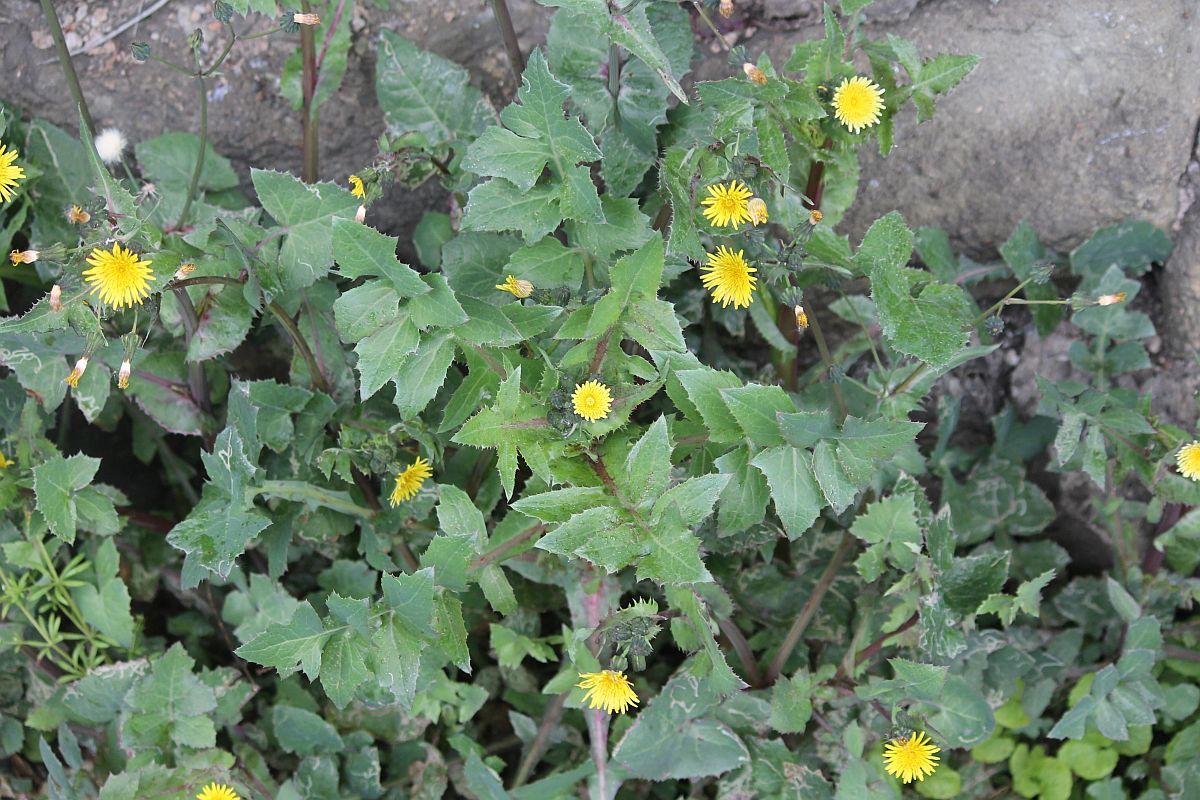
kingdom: Plantae
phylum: Tracheophyta
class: Magnoliopsida
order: Asterales
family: Asteraceae
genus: Sonchus
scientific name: Sonchus oleraceus
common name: Common sowthistle
